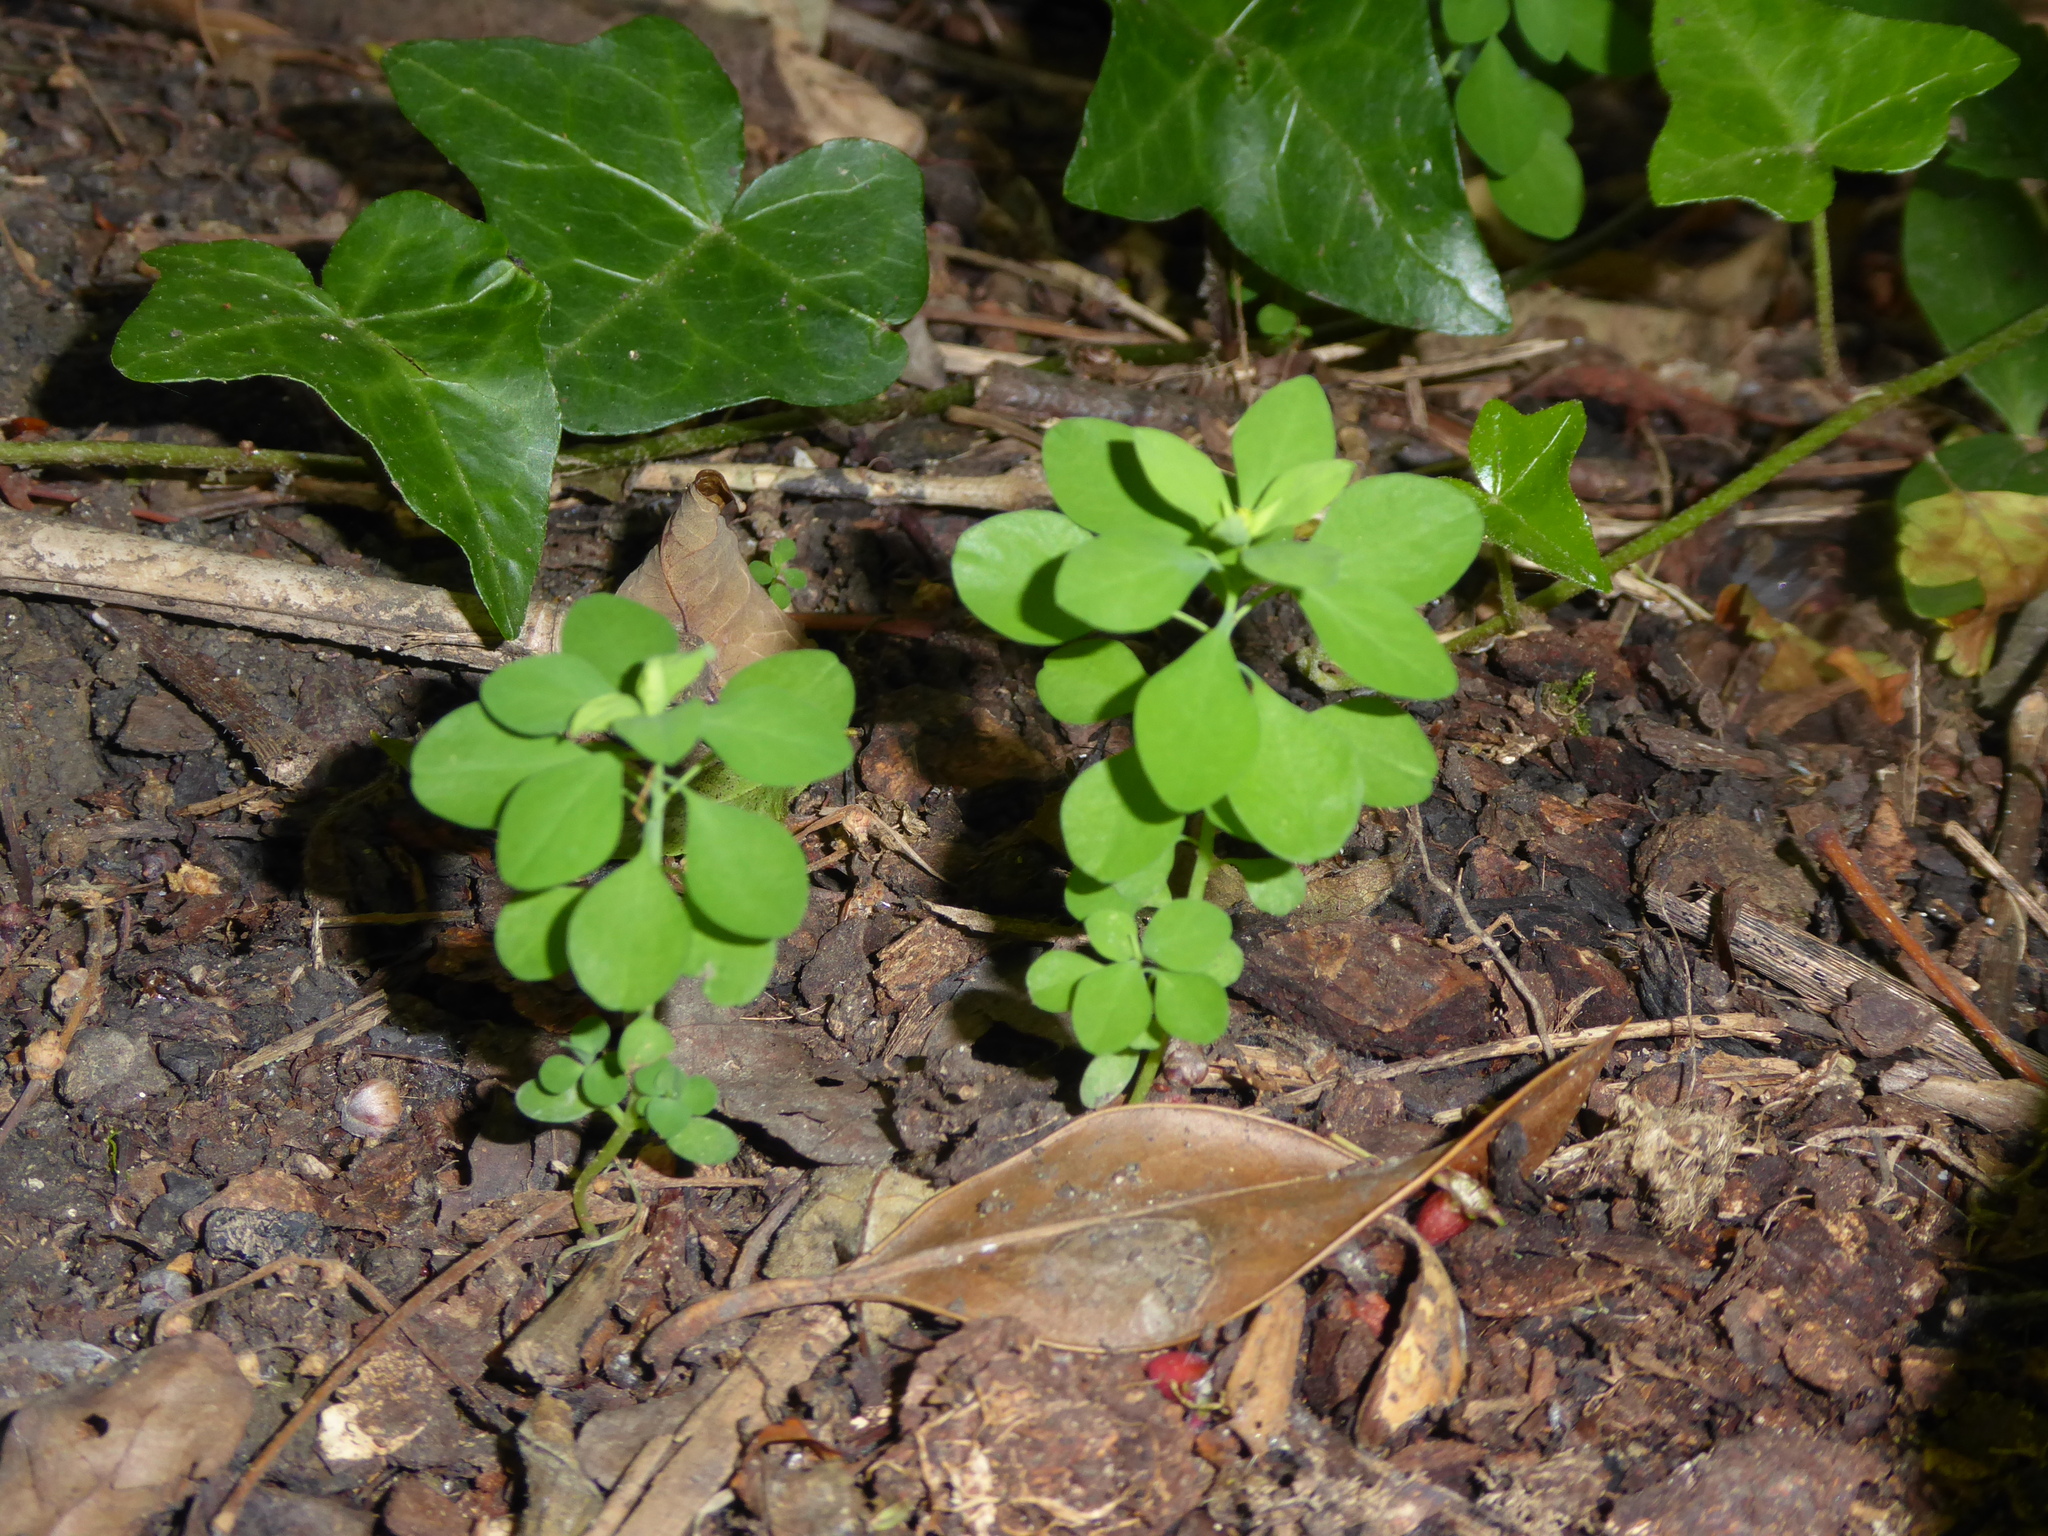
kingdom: Plantae
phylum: Tracheophyta
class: Magnoliopsida
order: Malpighiales
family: Euphorbiaceae
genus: Euphorbia
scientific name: Euphorbia peplus
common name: Petty spurge
